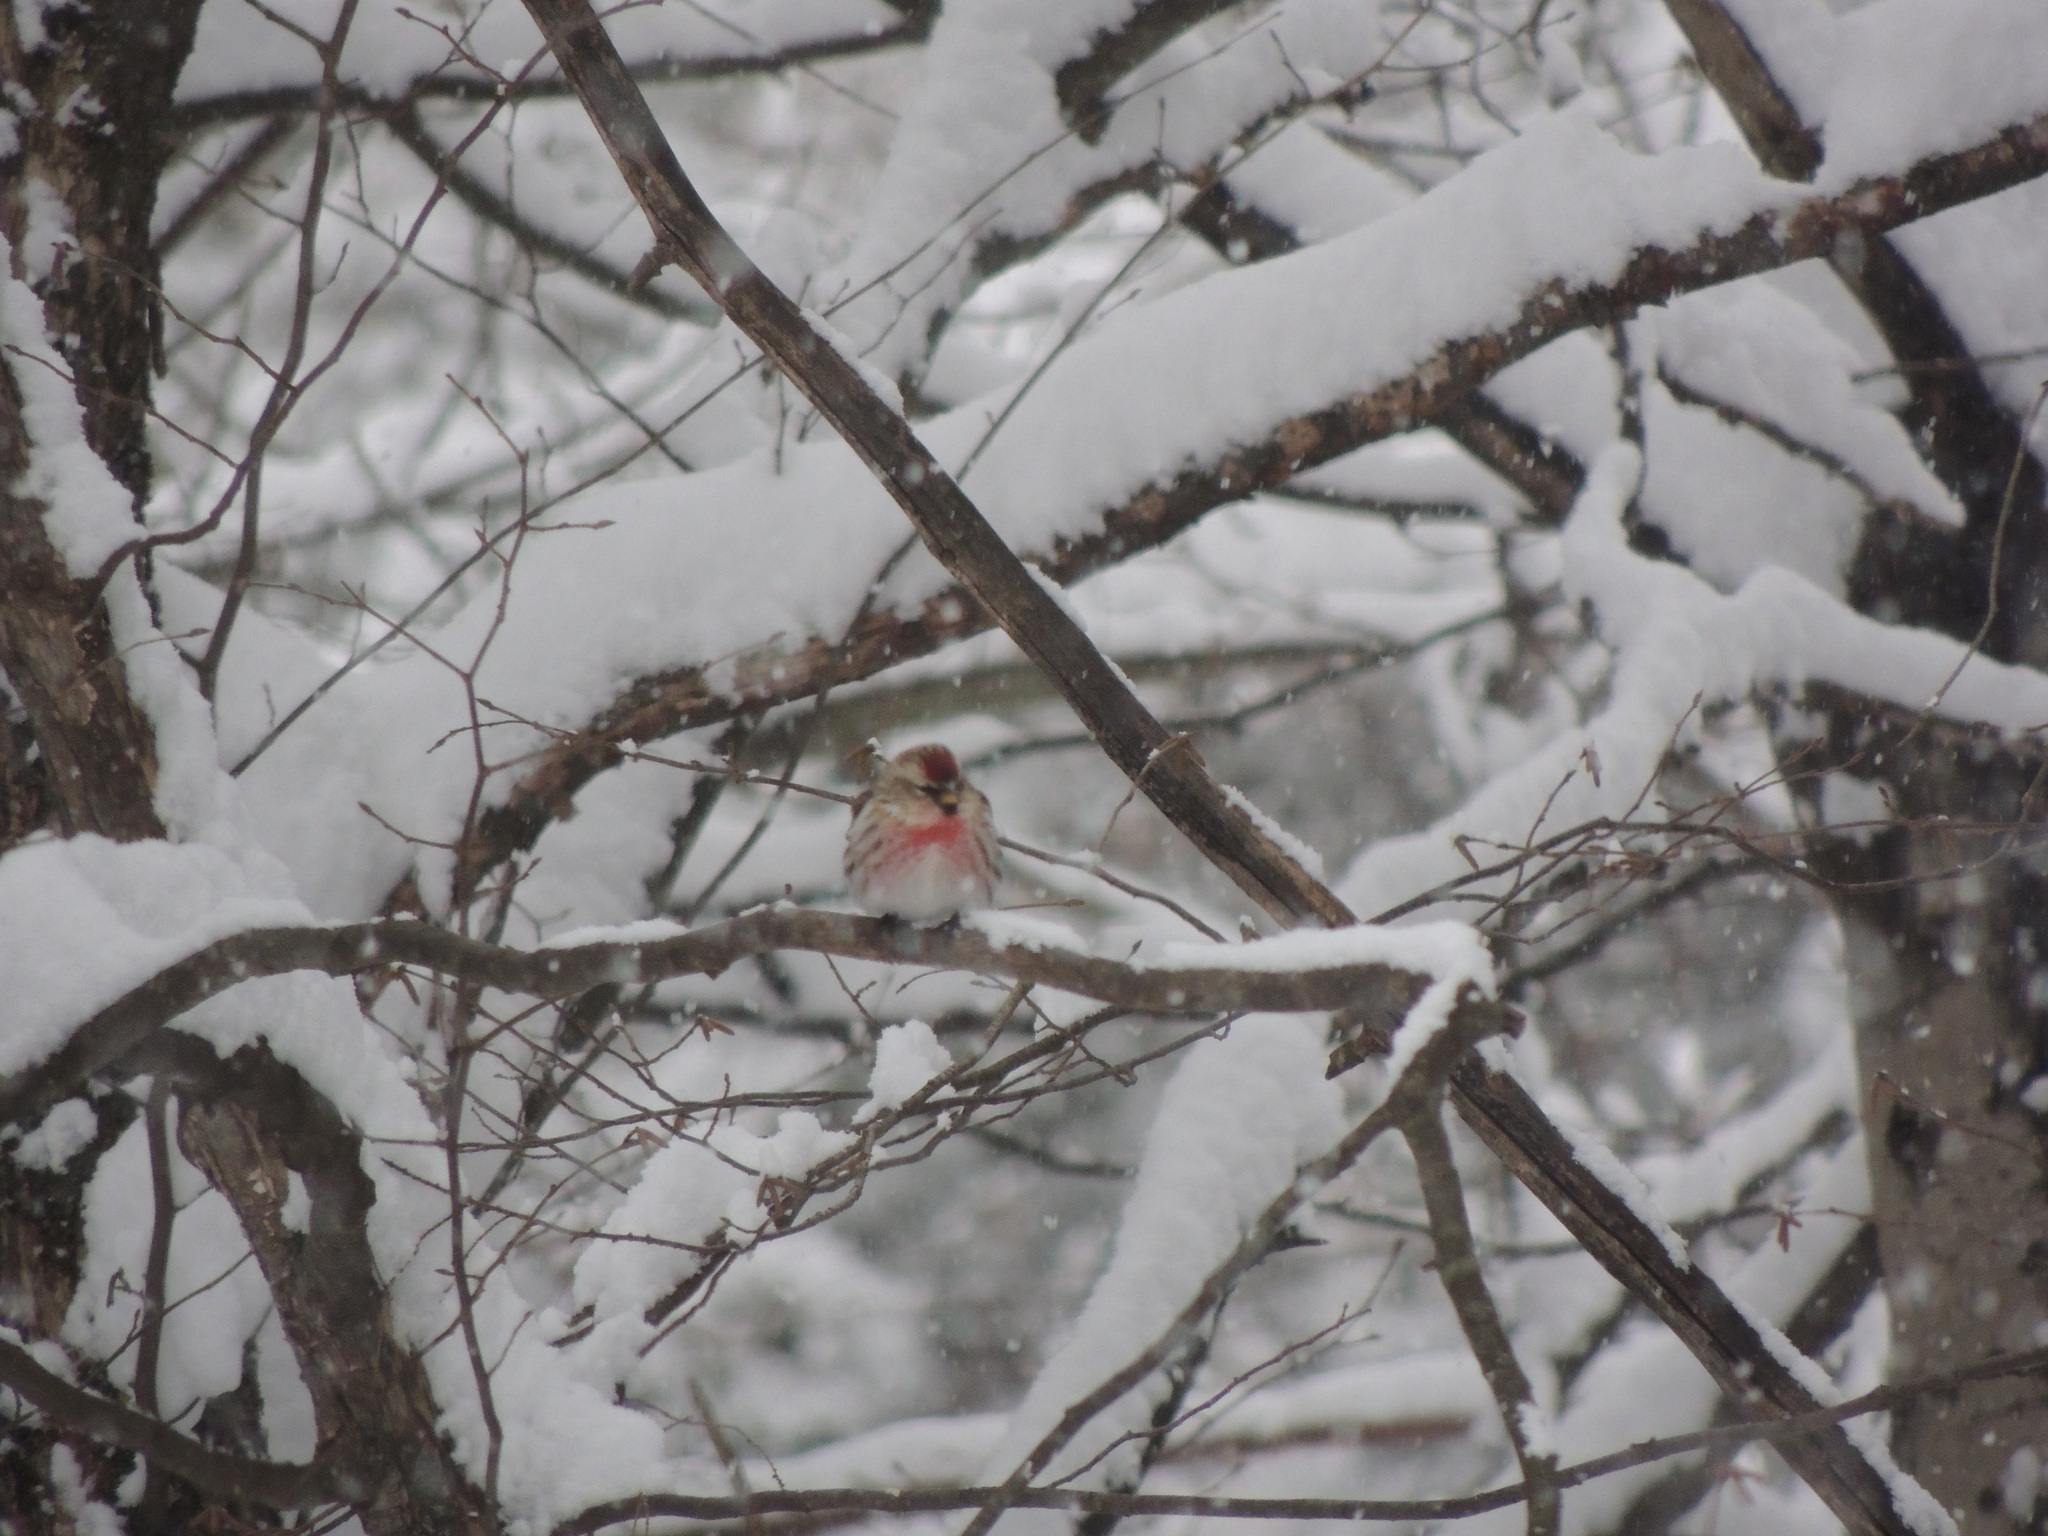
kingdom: Animalia
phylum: Chordata
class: Aves
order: Passeriformes
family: Fringillidae
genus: Acanthis
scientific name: Acanthis flammea
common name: Common redpoll
